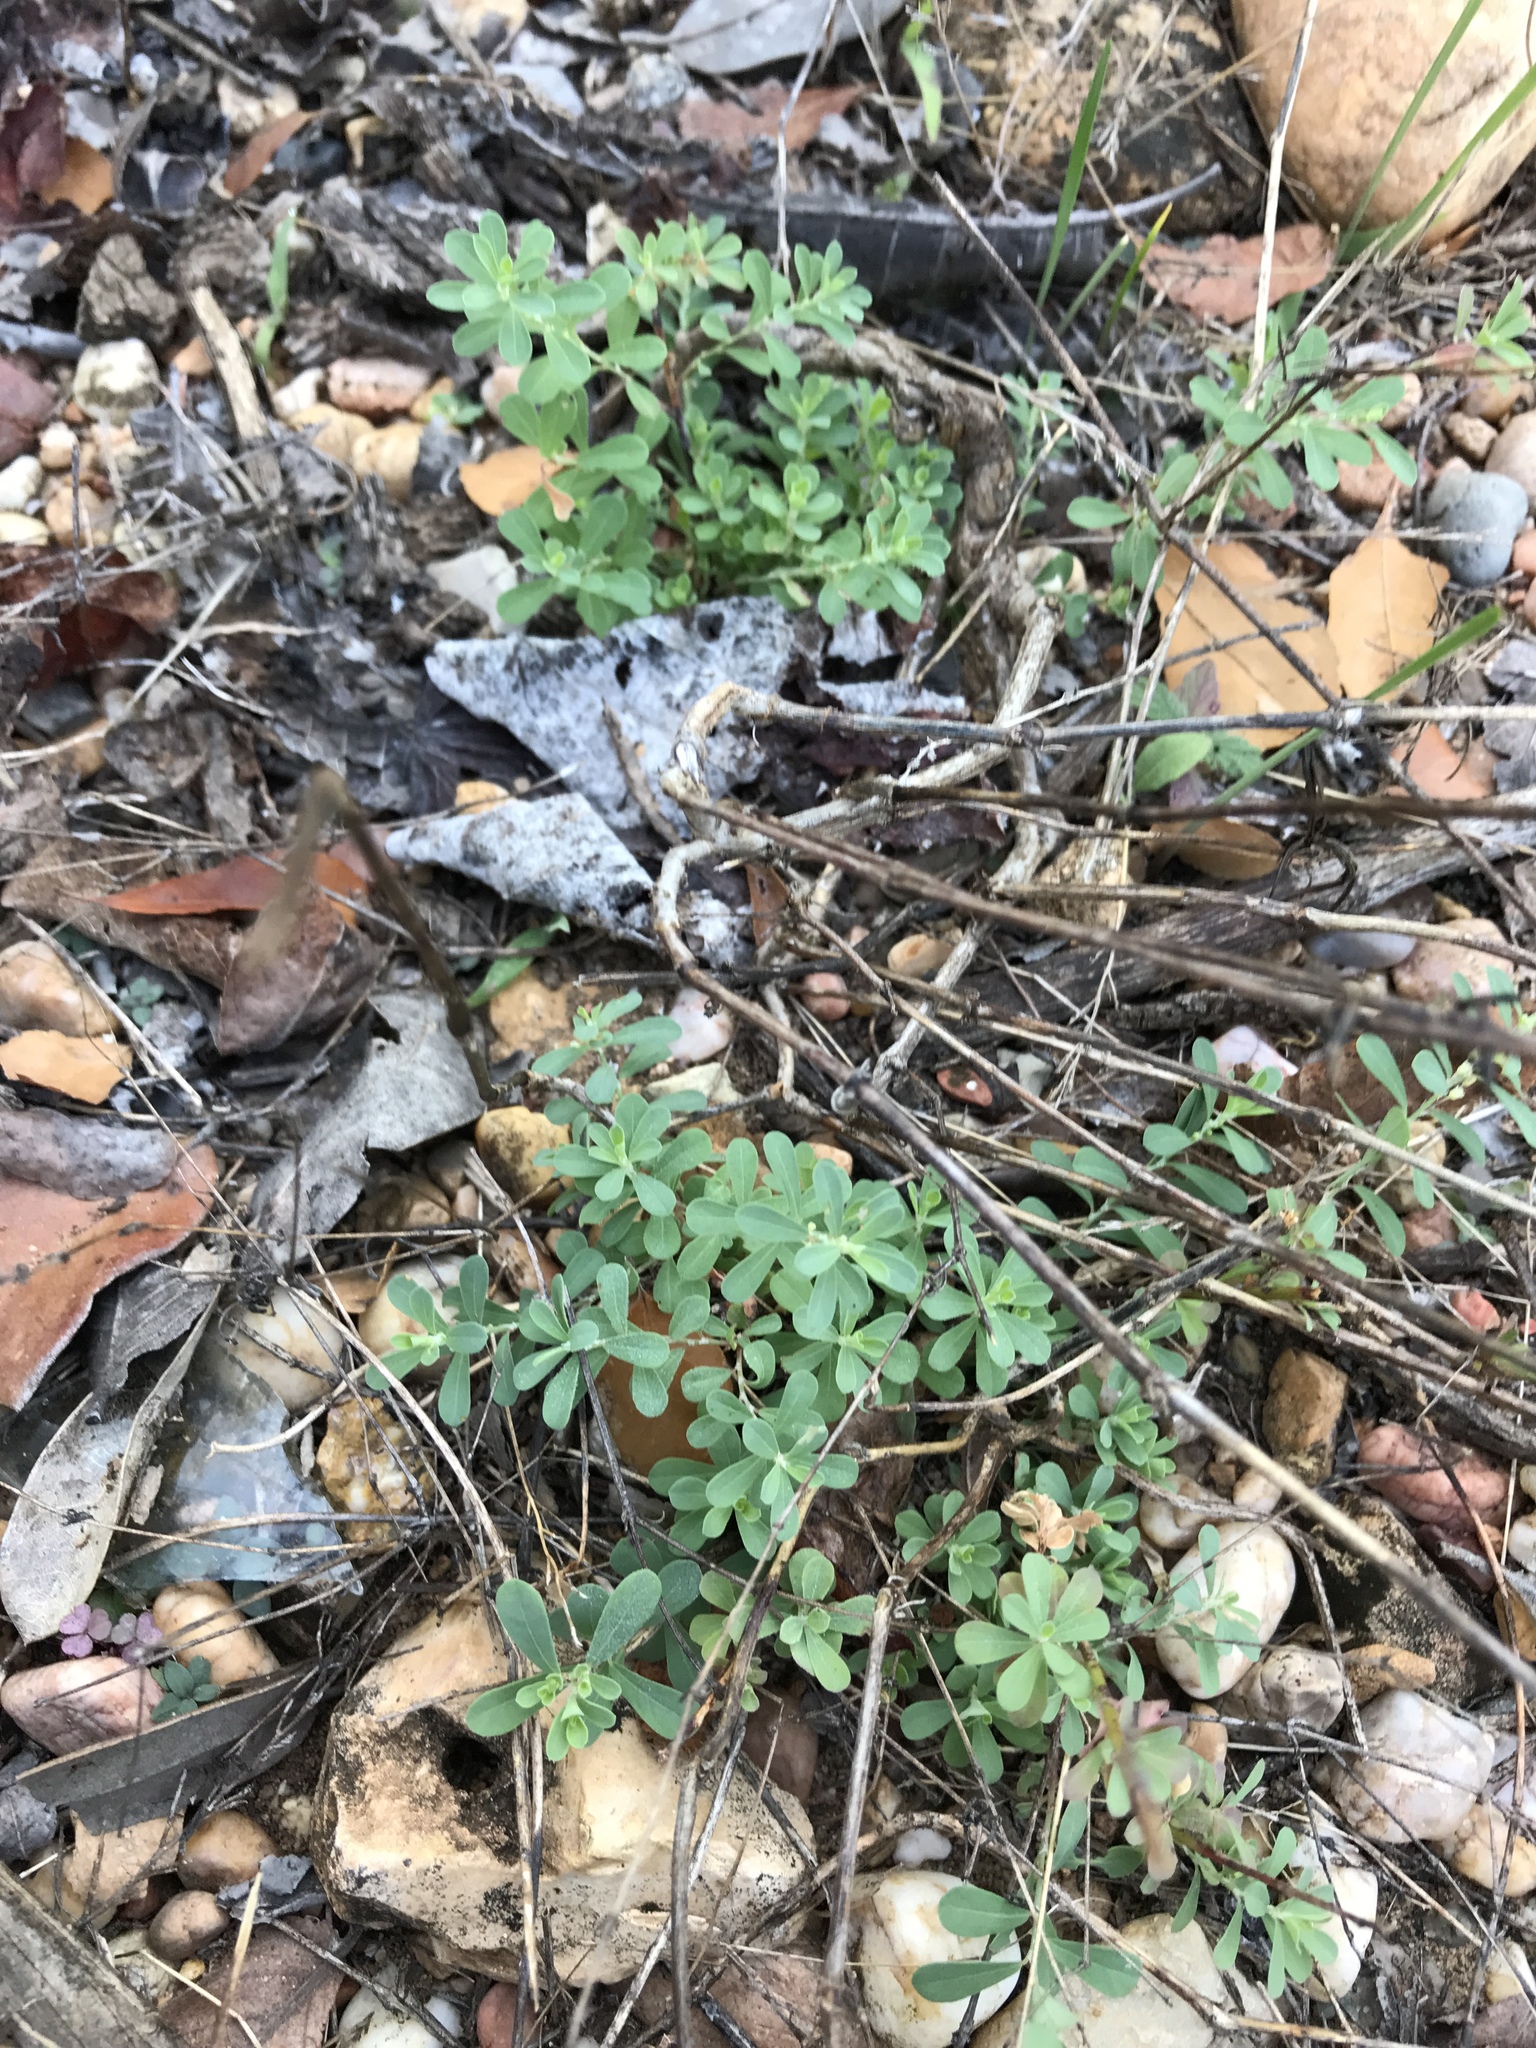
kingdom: Plantae
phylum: Tracheophyta
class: Magnoliopsida
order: Malpighiales
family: Phyllanthaceae
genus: Phyllanthus
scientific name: Phyllanthus polygonoides
